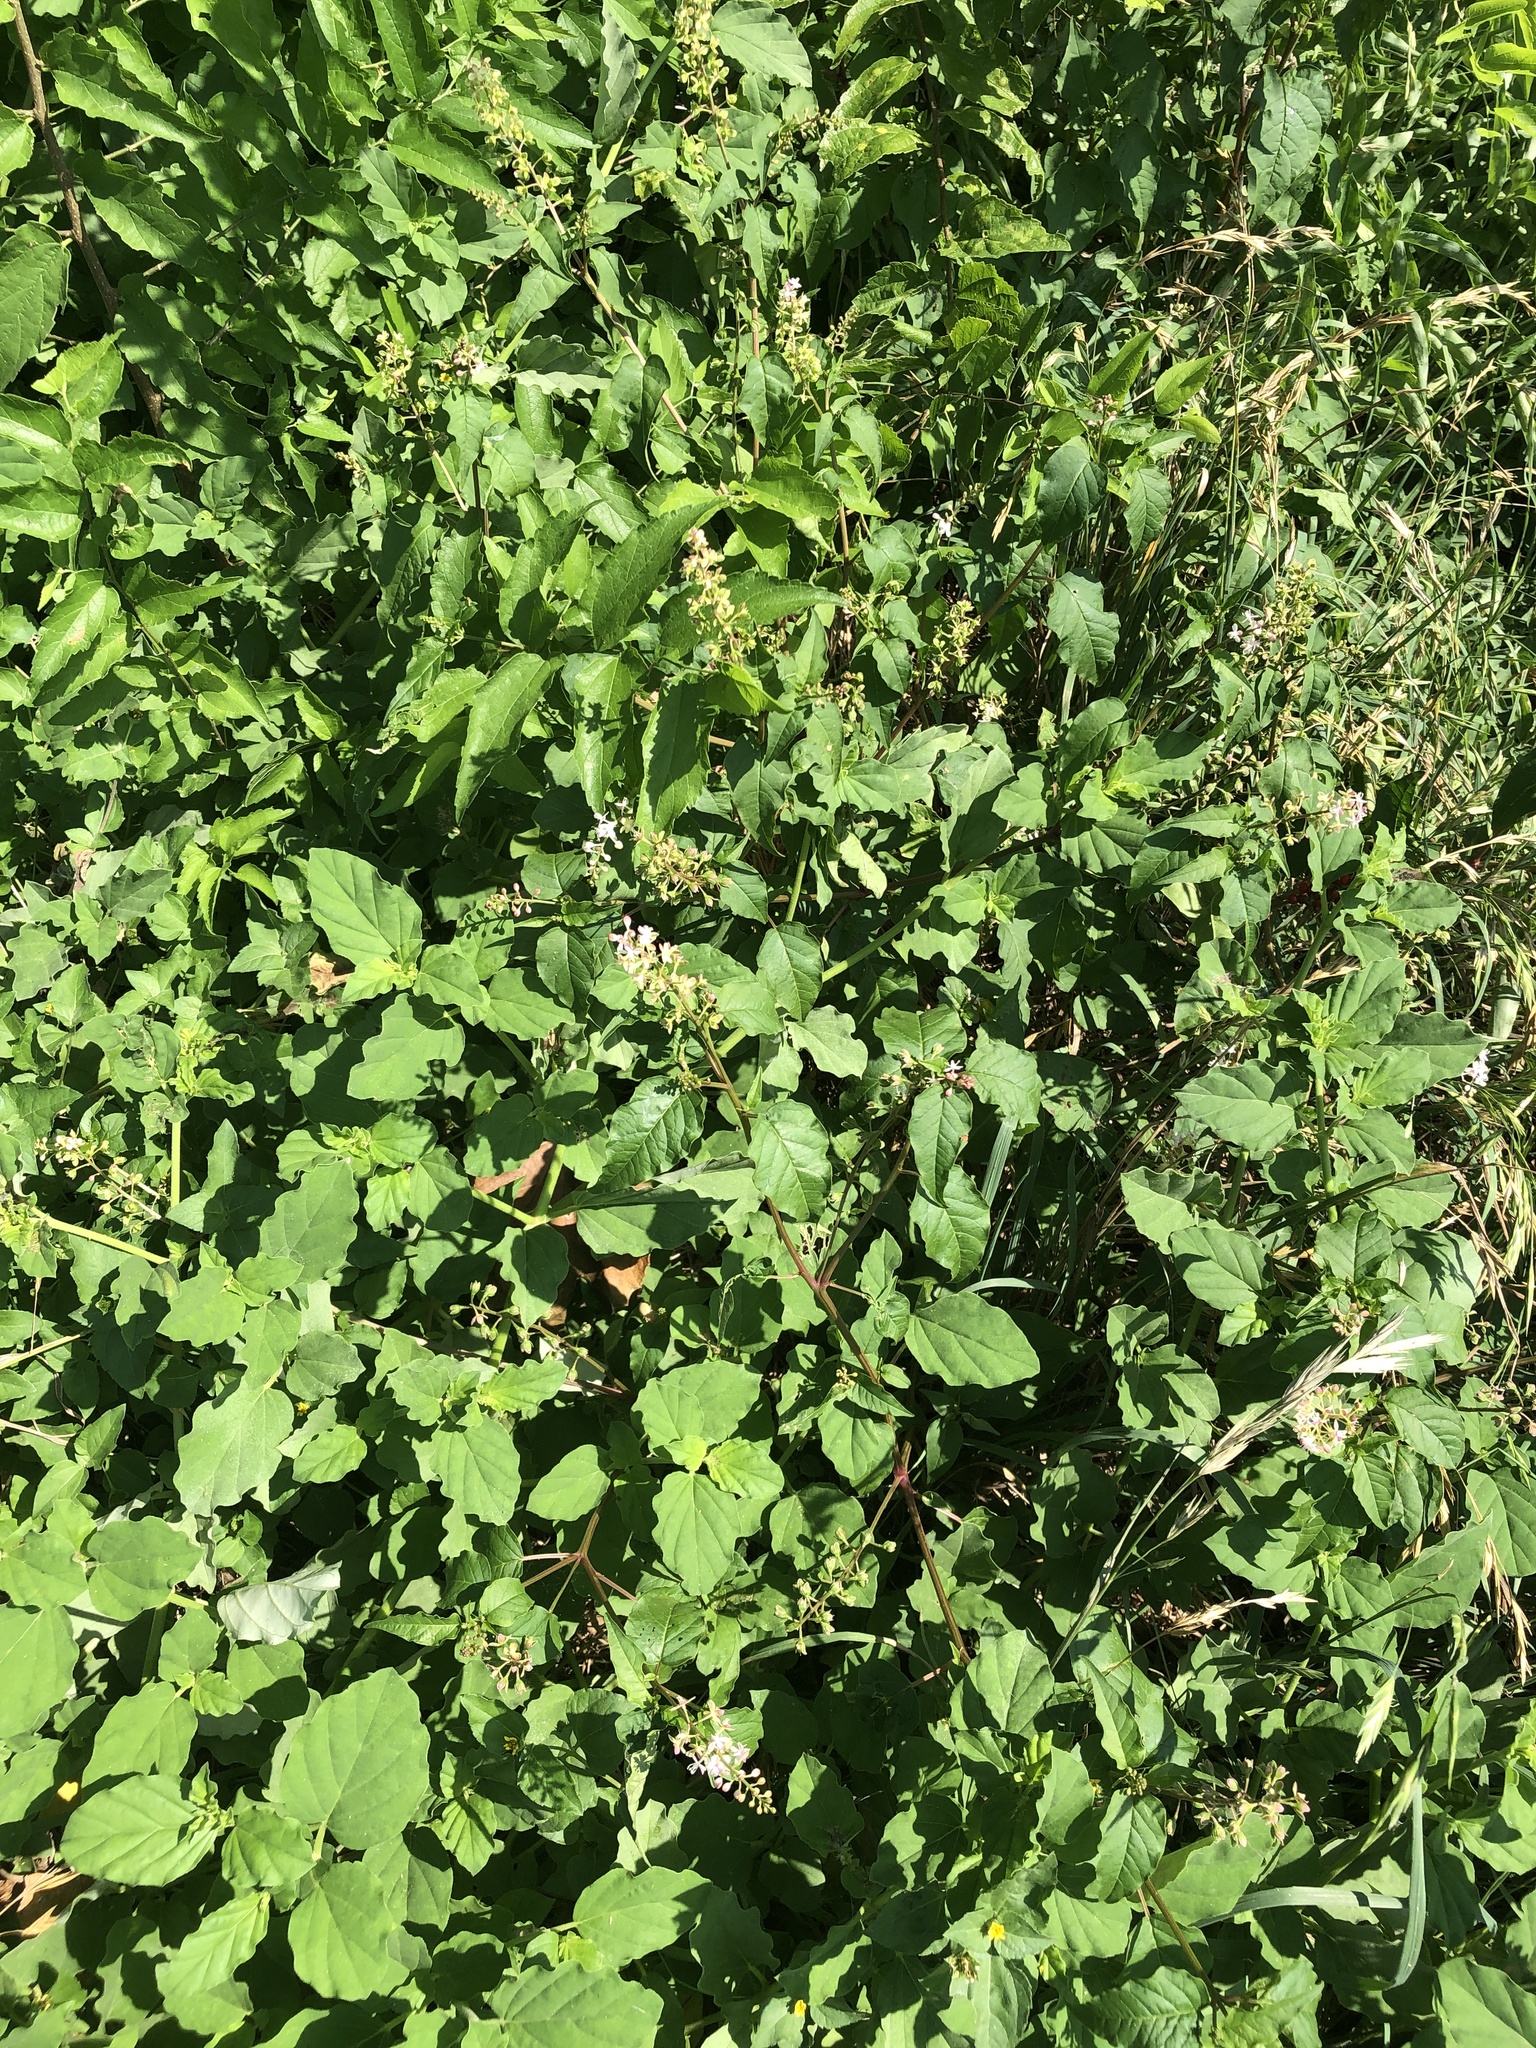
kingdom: Plantae
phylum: Tracheophyta
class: Magnoliopsida
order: Caryophyllales
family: Phytolaccaceae
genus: Rivina
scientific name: Rivina humilis
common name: Rougeplant
